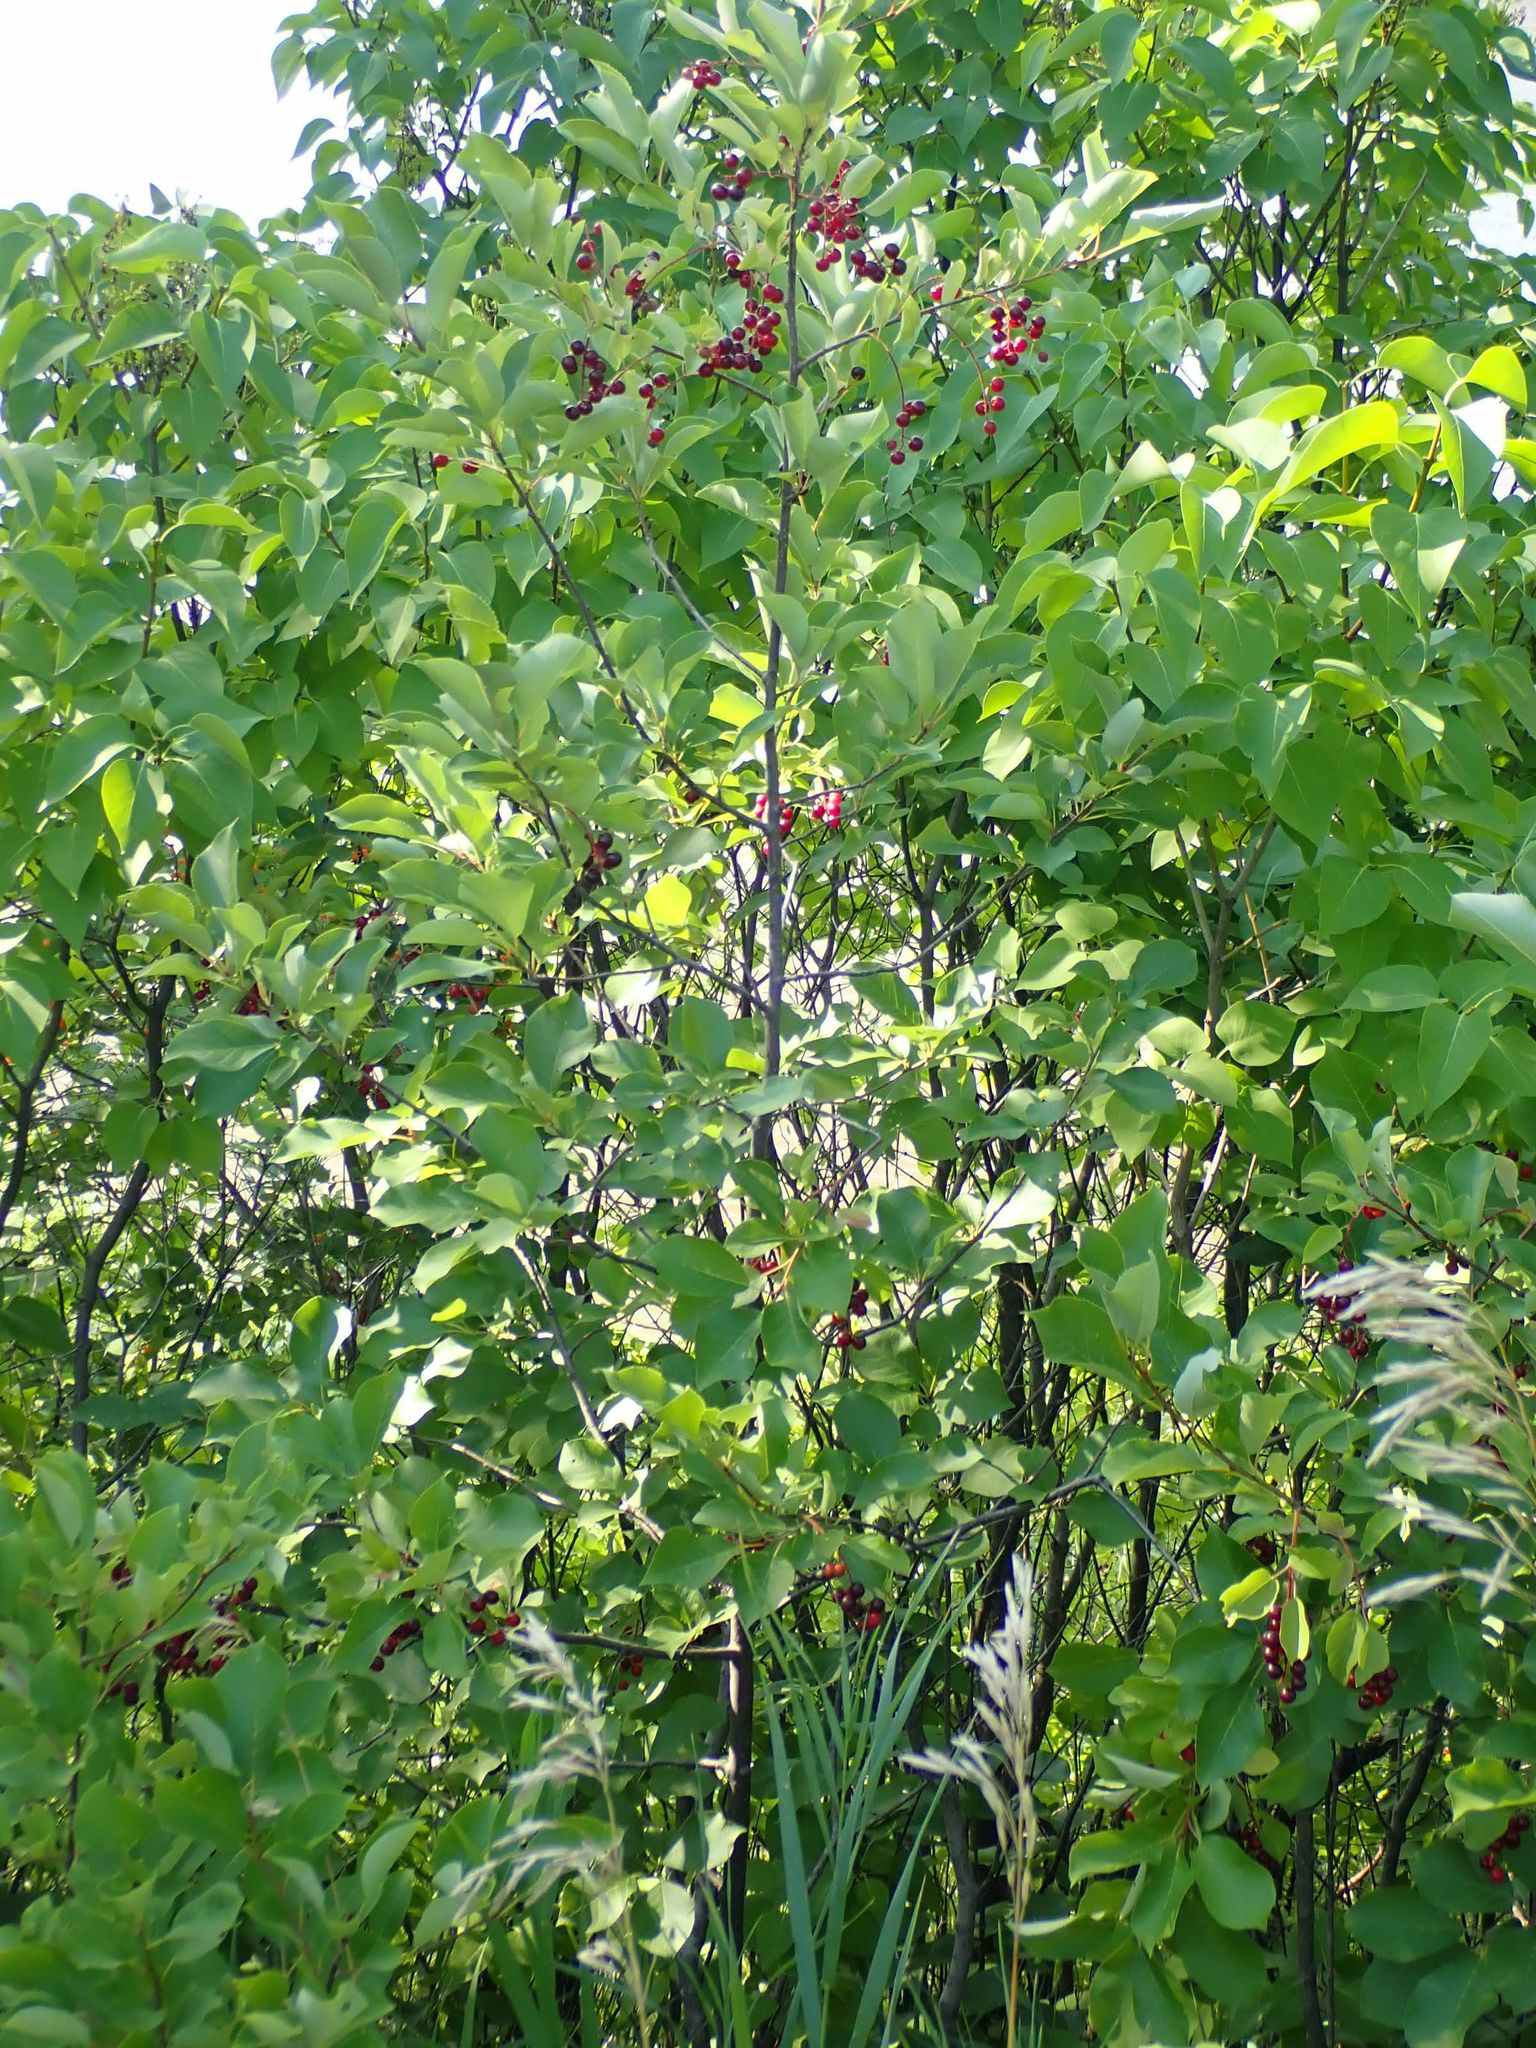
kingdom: Plantae
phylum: Tracheophyta
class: Magnoliopsida
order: Rosales
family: Rosaceae
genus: Prunus
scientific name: Prunus virginiana
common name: Chokecherry
